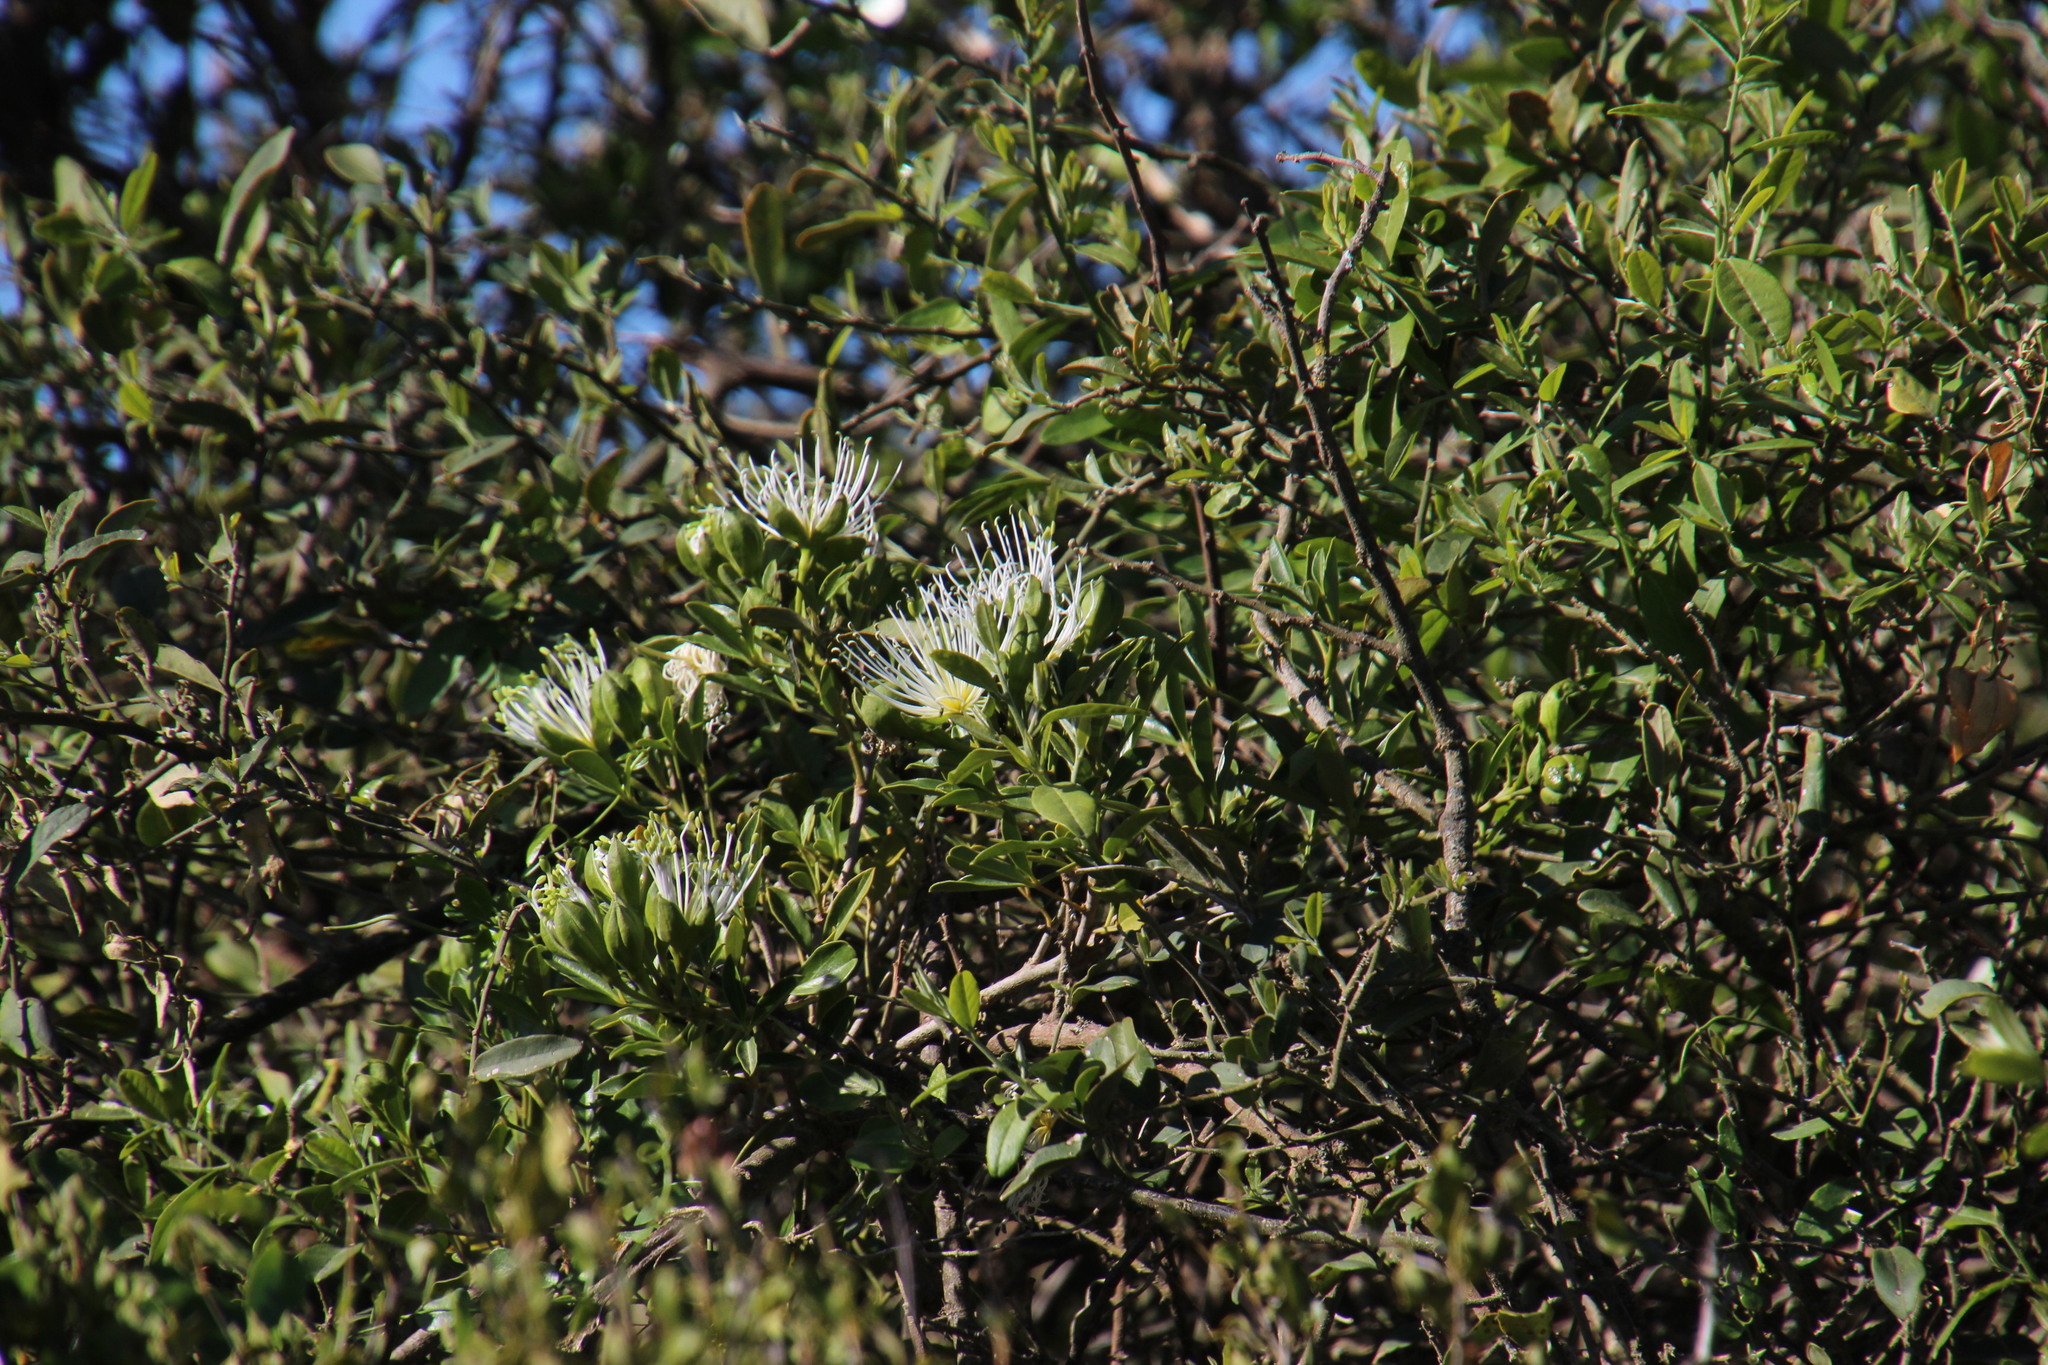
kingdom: Plantae
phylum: Tracheophyta
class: Magnoliopsida
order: Brassicales
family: Capparaceae
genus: Maerua
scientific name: Maerua cafra
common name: Bush maerua
